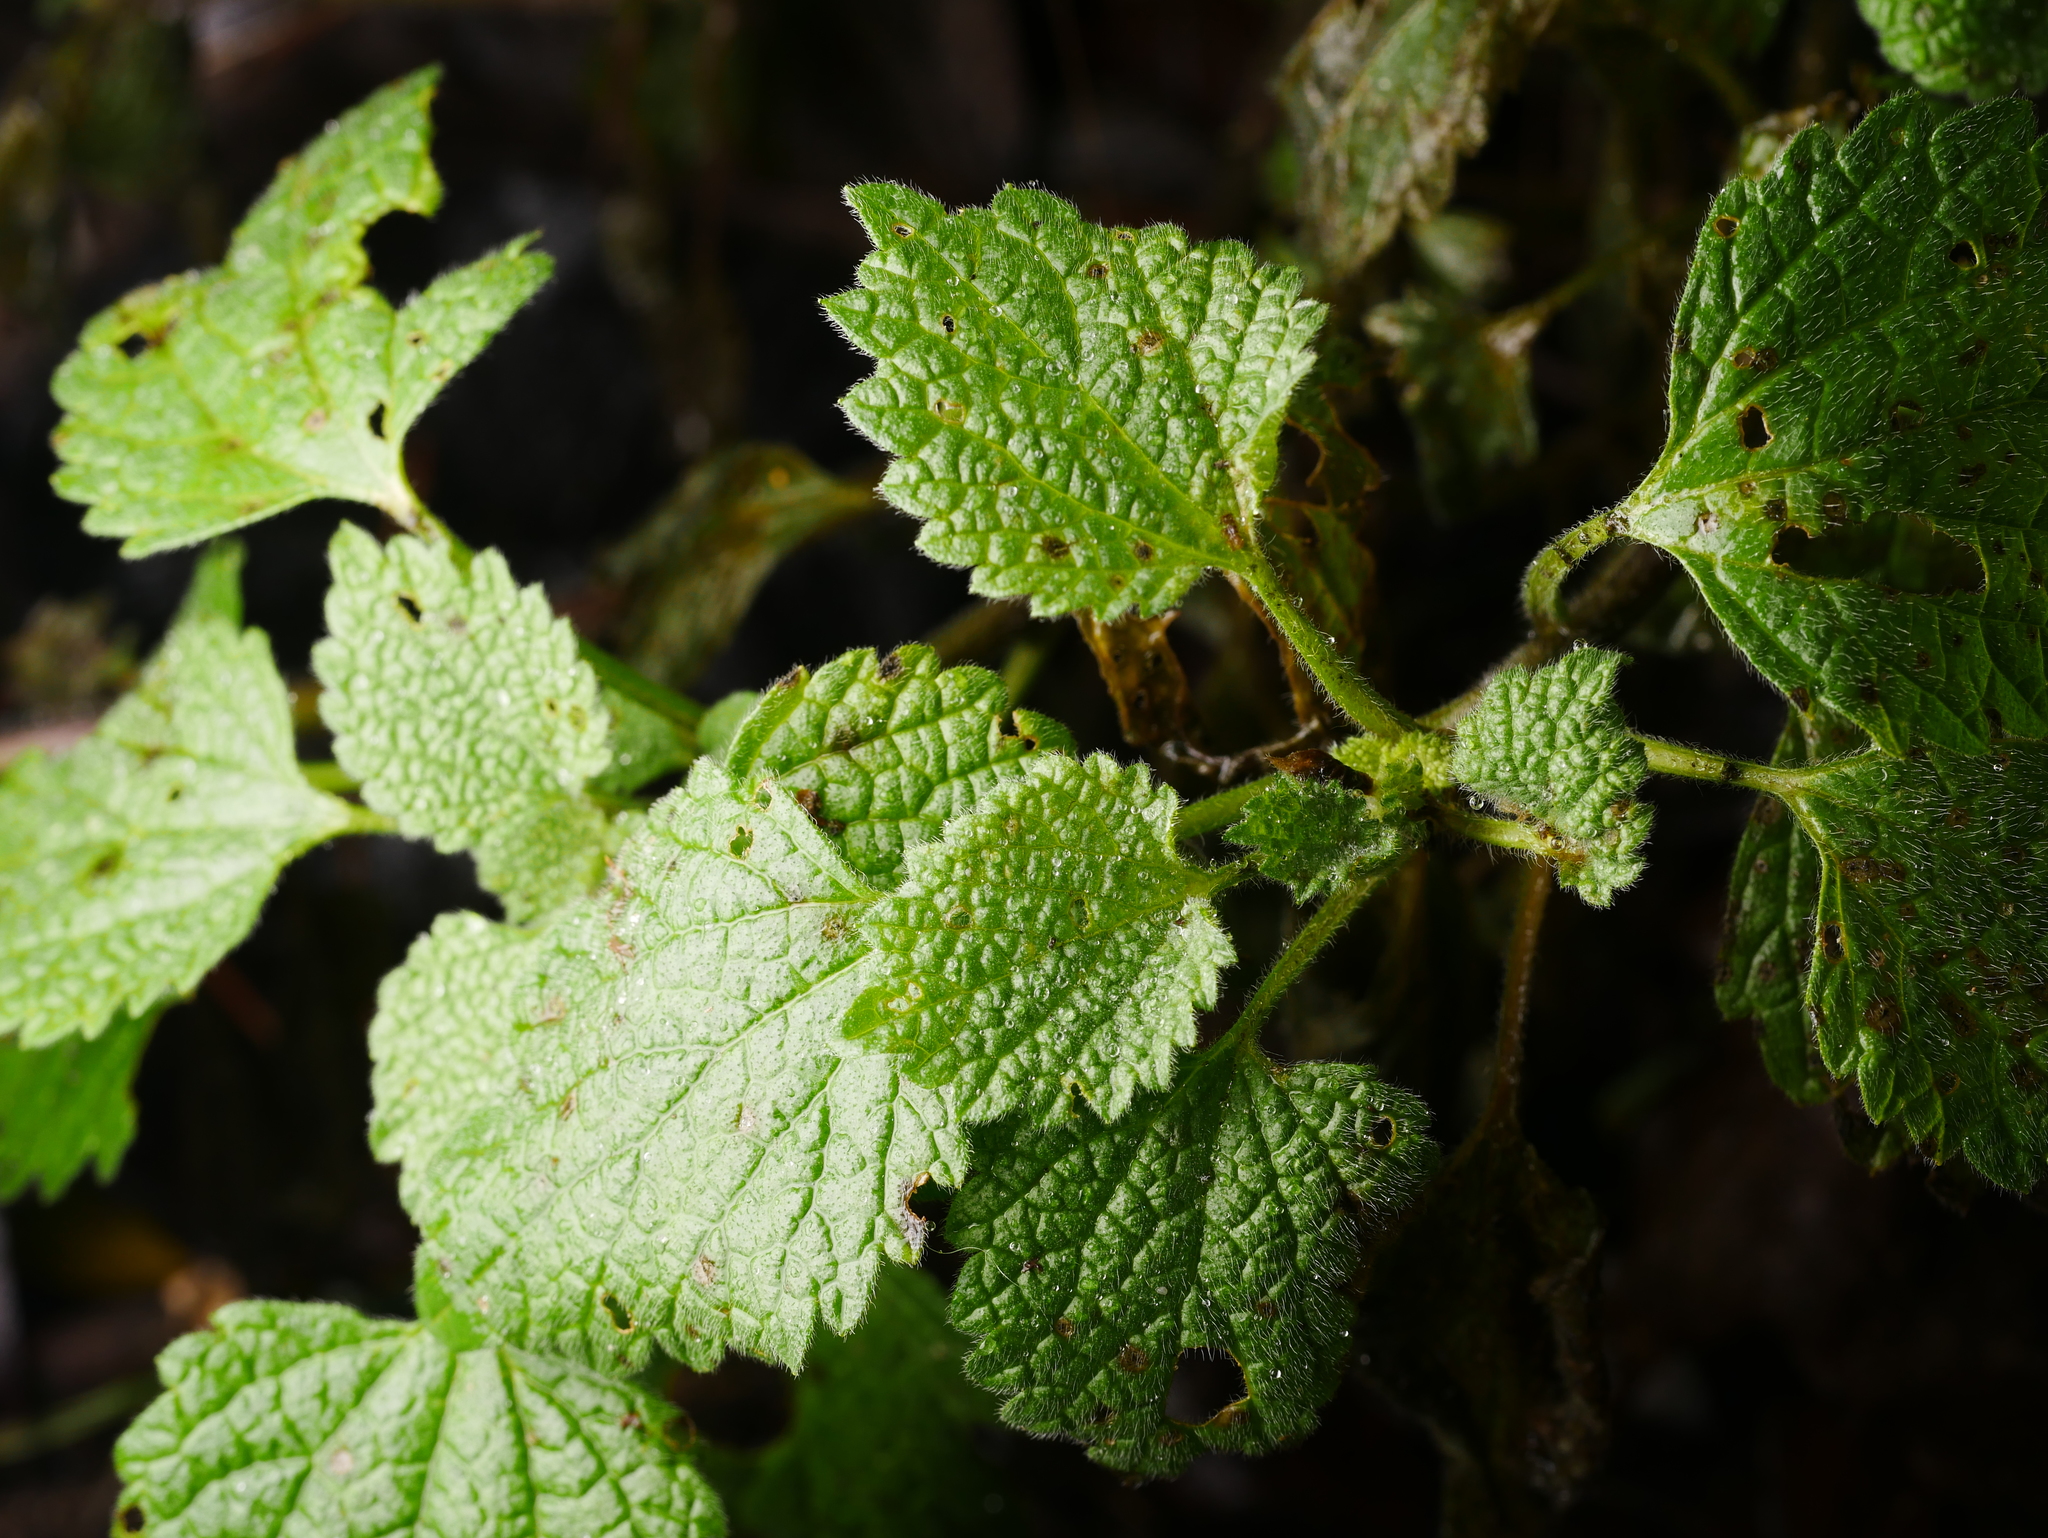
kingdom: Plantae
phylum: Tracheophyta
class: Magnoliopsida
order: Lamiales
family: Lamiaceae
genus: Ballota
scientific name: Ballota nigra
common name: Black horehound
